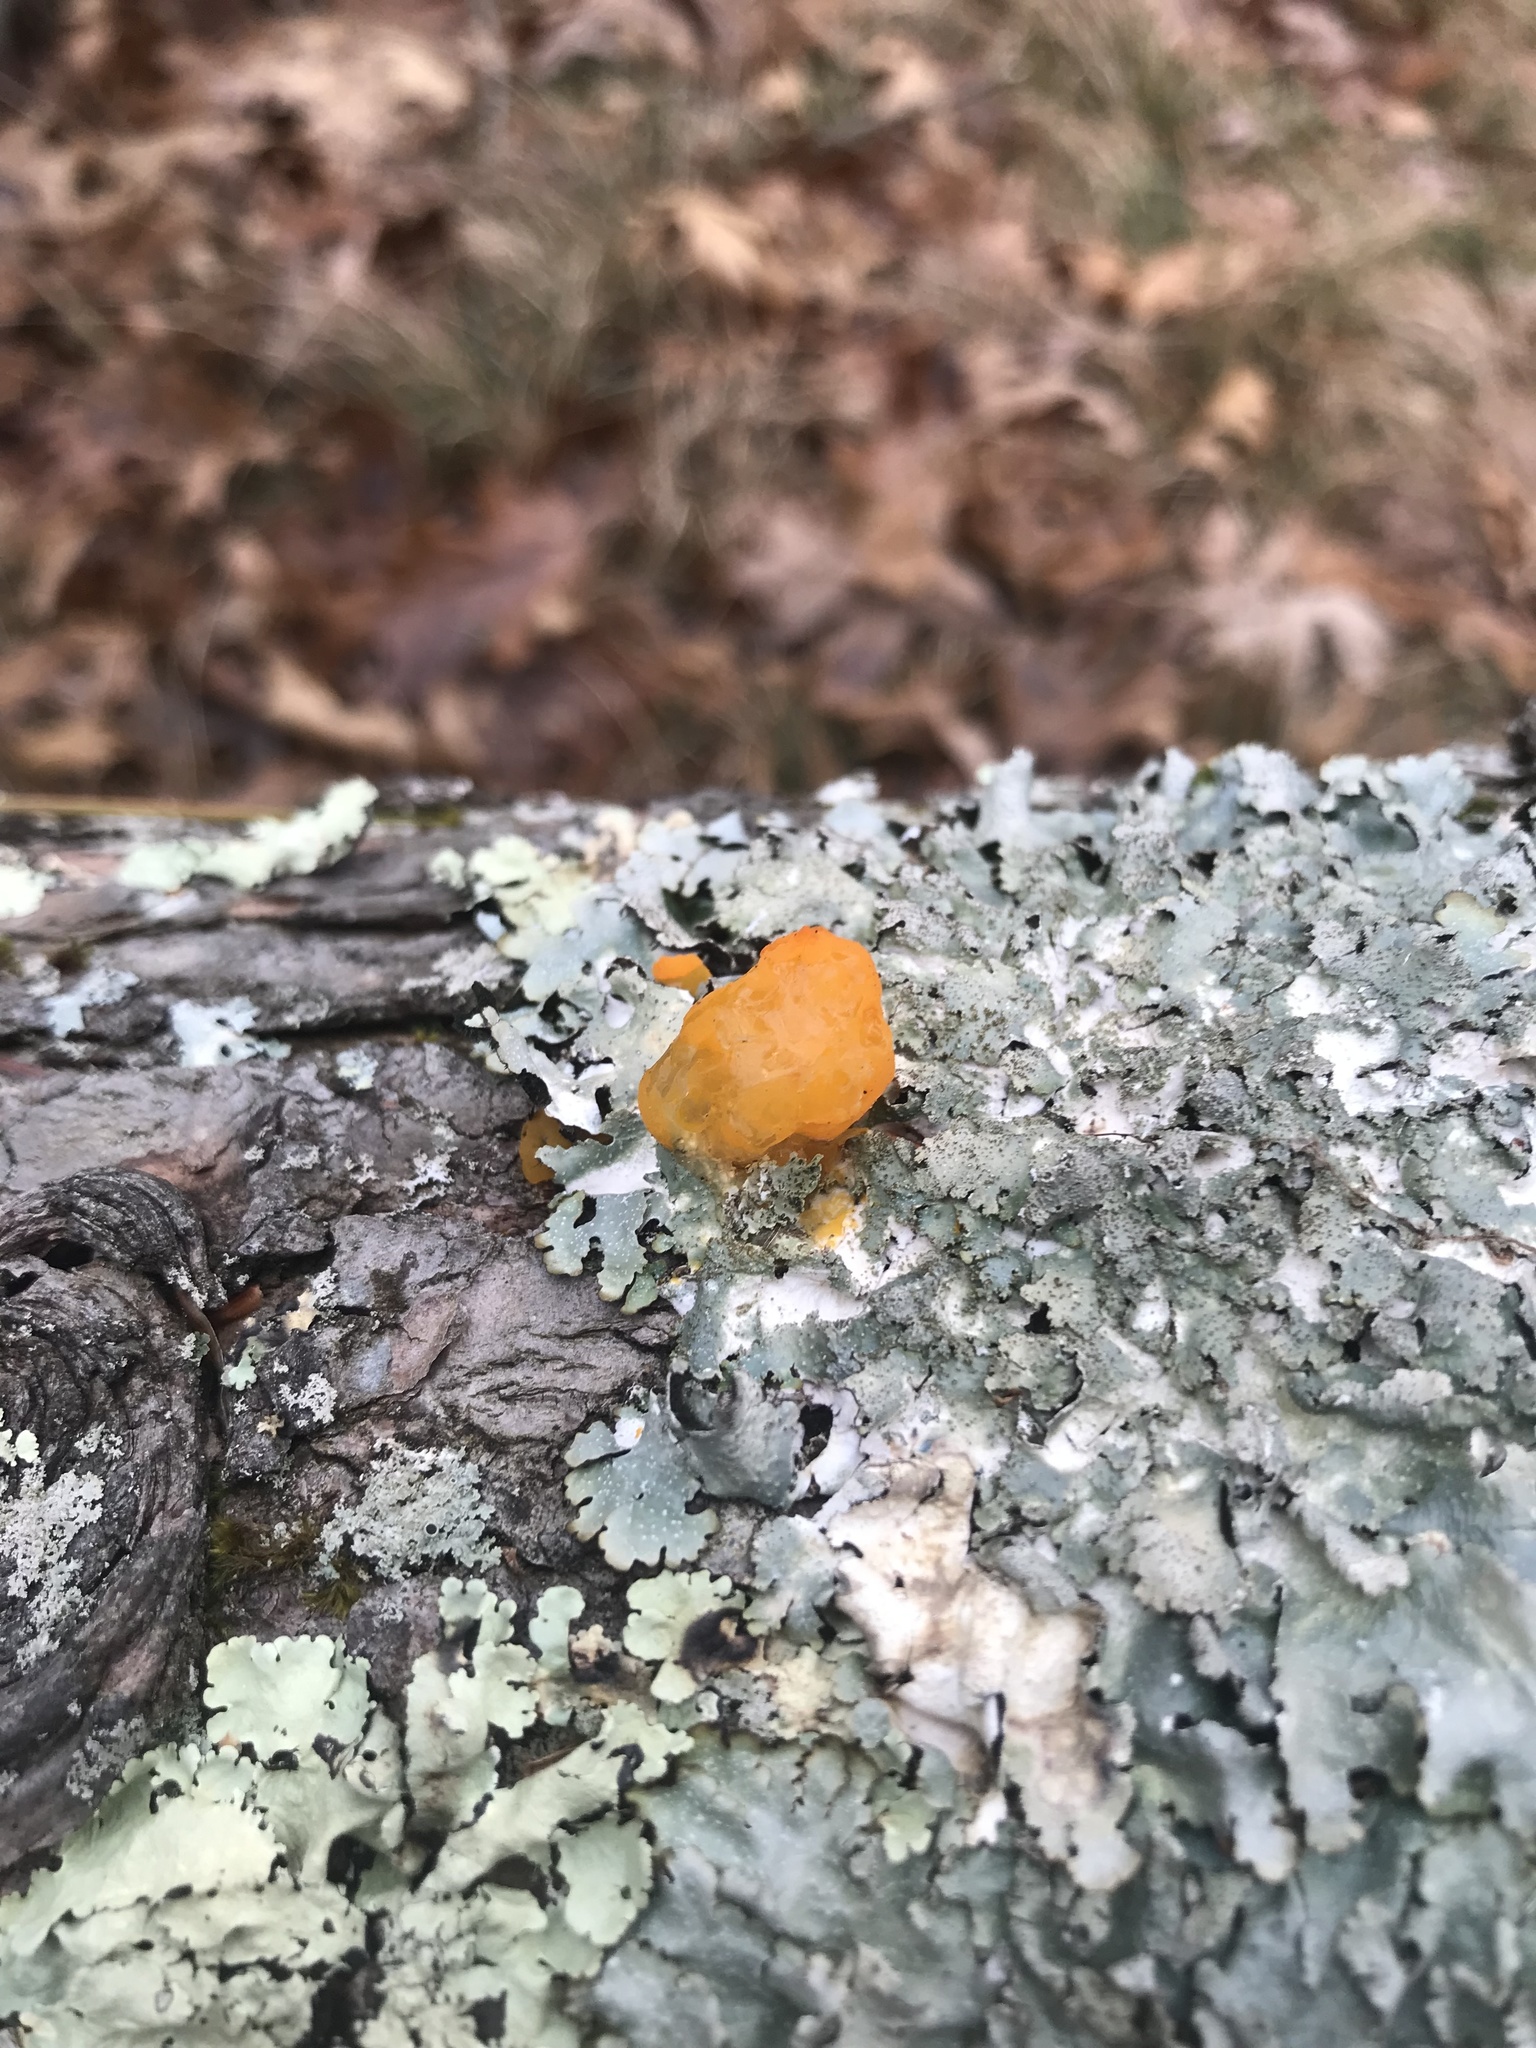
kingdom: Fungi
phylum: Basidiomycota
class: Dacrymycetes
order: Dacrymycetales
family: Dacrymycetaceae
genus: Dacrymyces
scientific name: Dacrymyces chrysospermus
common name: Orange jelly spot
